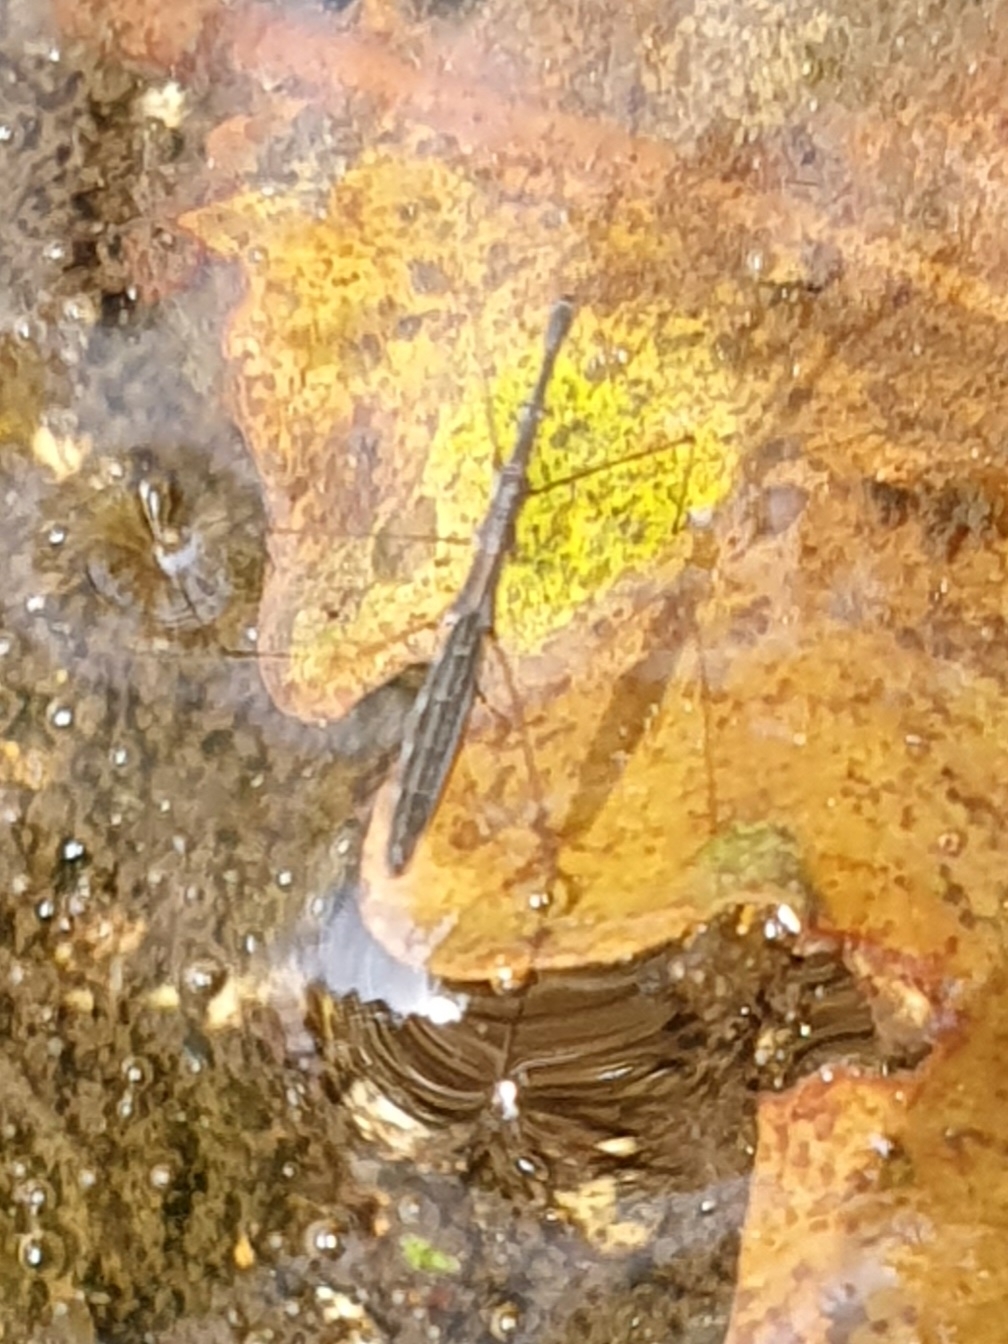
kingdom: Animalia
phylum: Arthropoda
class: Insecta
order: Hemiptera
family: Hydrometridae
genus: Hydrometra
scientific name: Hydrometra stagnorum
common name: Water measurer
